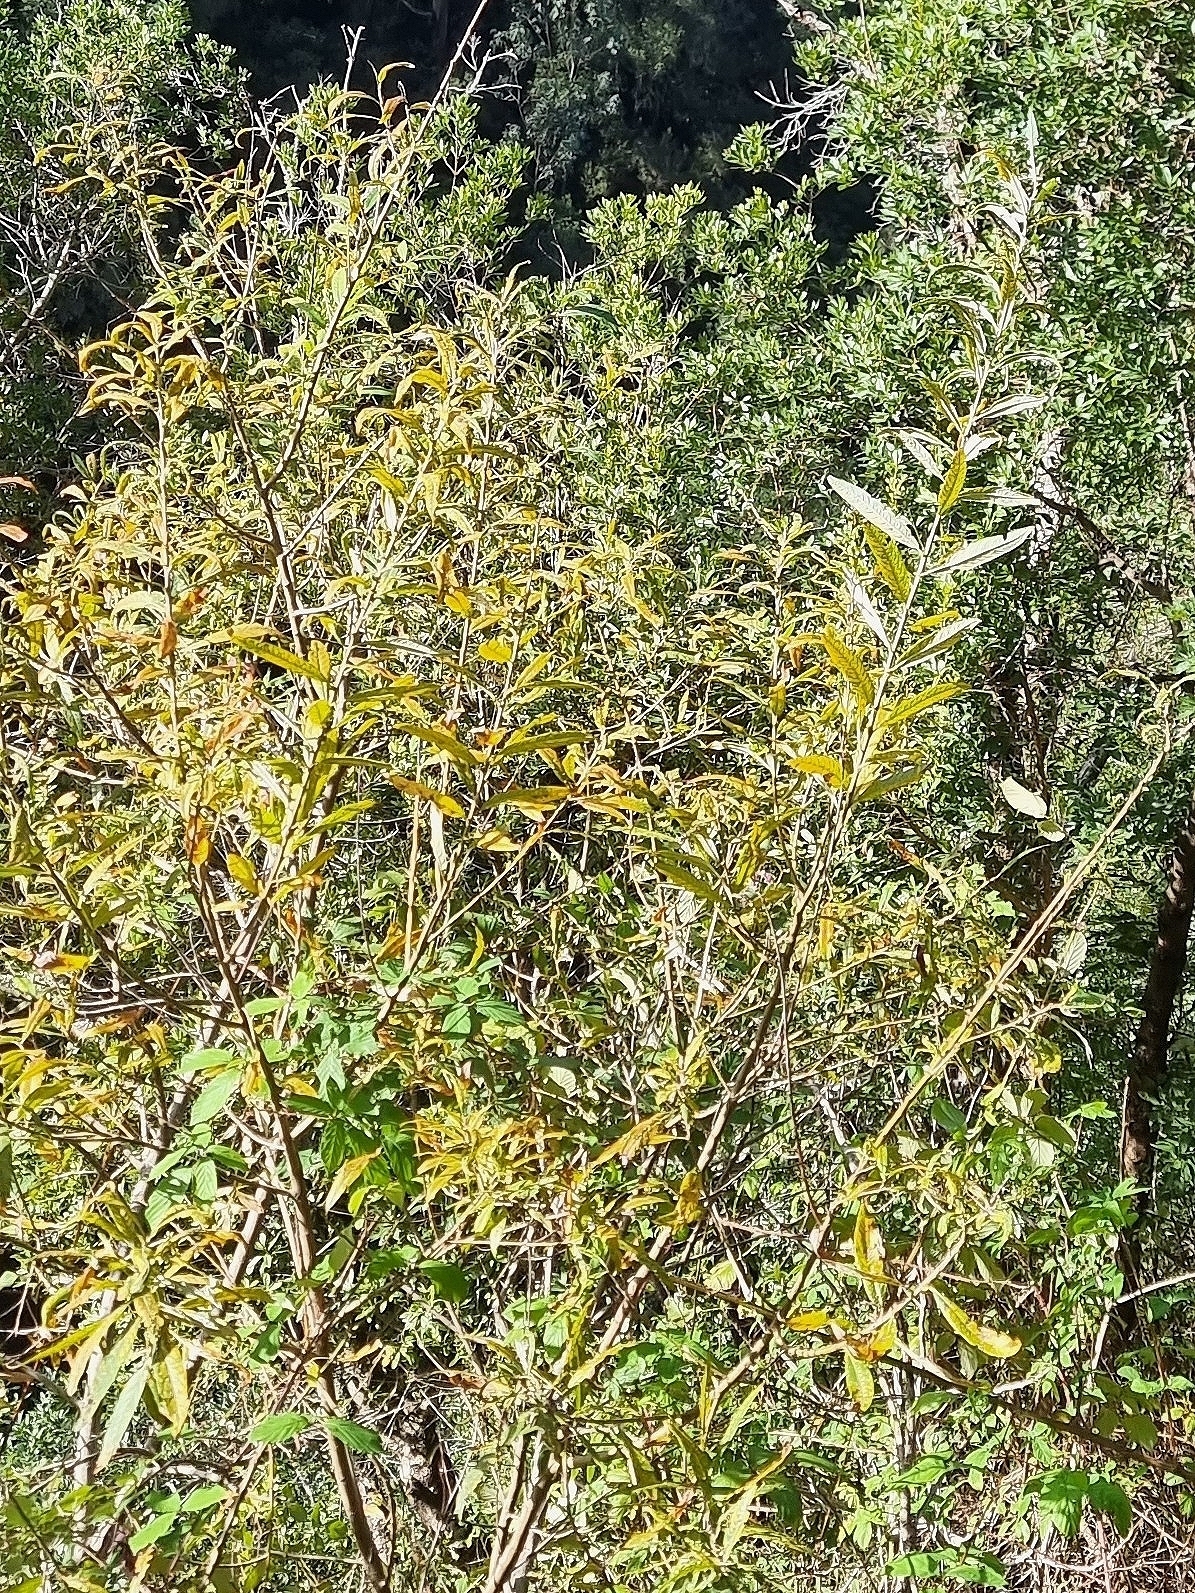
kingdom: Plantae
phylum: Tracheophyta
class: Magnoliopsida
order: Malpighiales
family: Salicaceae
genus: Salix
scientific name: Salix canariensis
